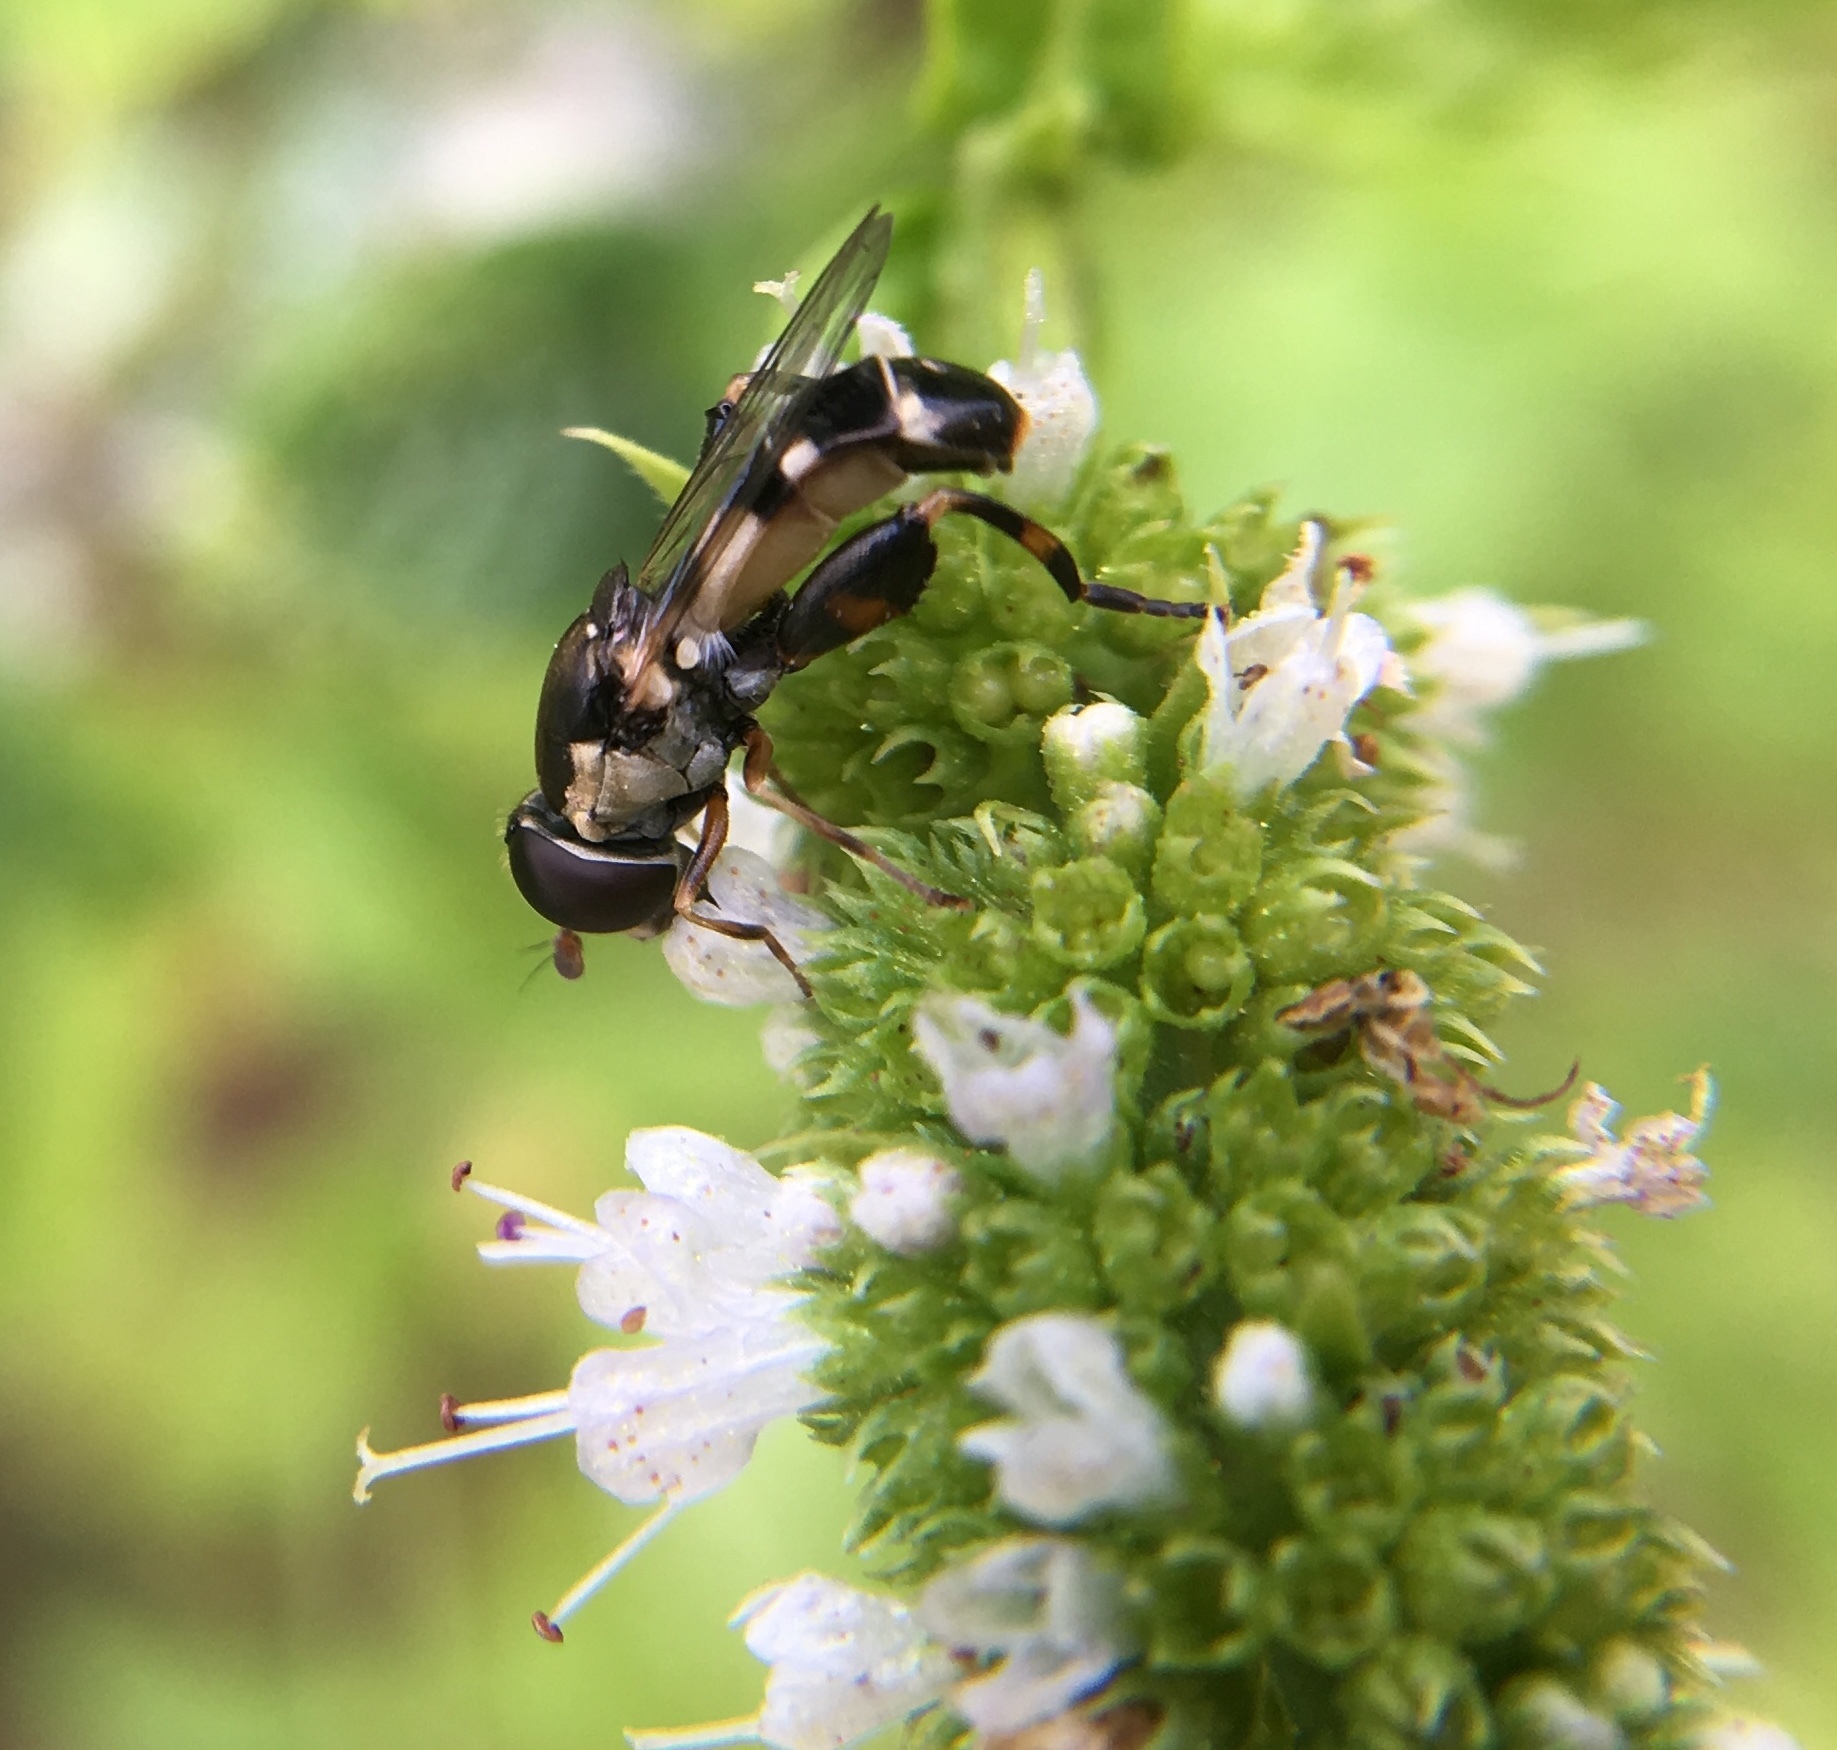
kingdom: Animalia
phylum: Arthropoda
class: Insecta
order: Diptera
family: Syrphidae
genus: Syritta
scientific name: Syritta pipiens
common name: Hover fly
